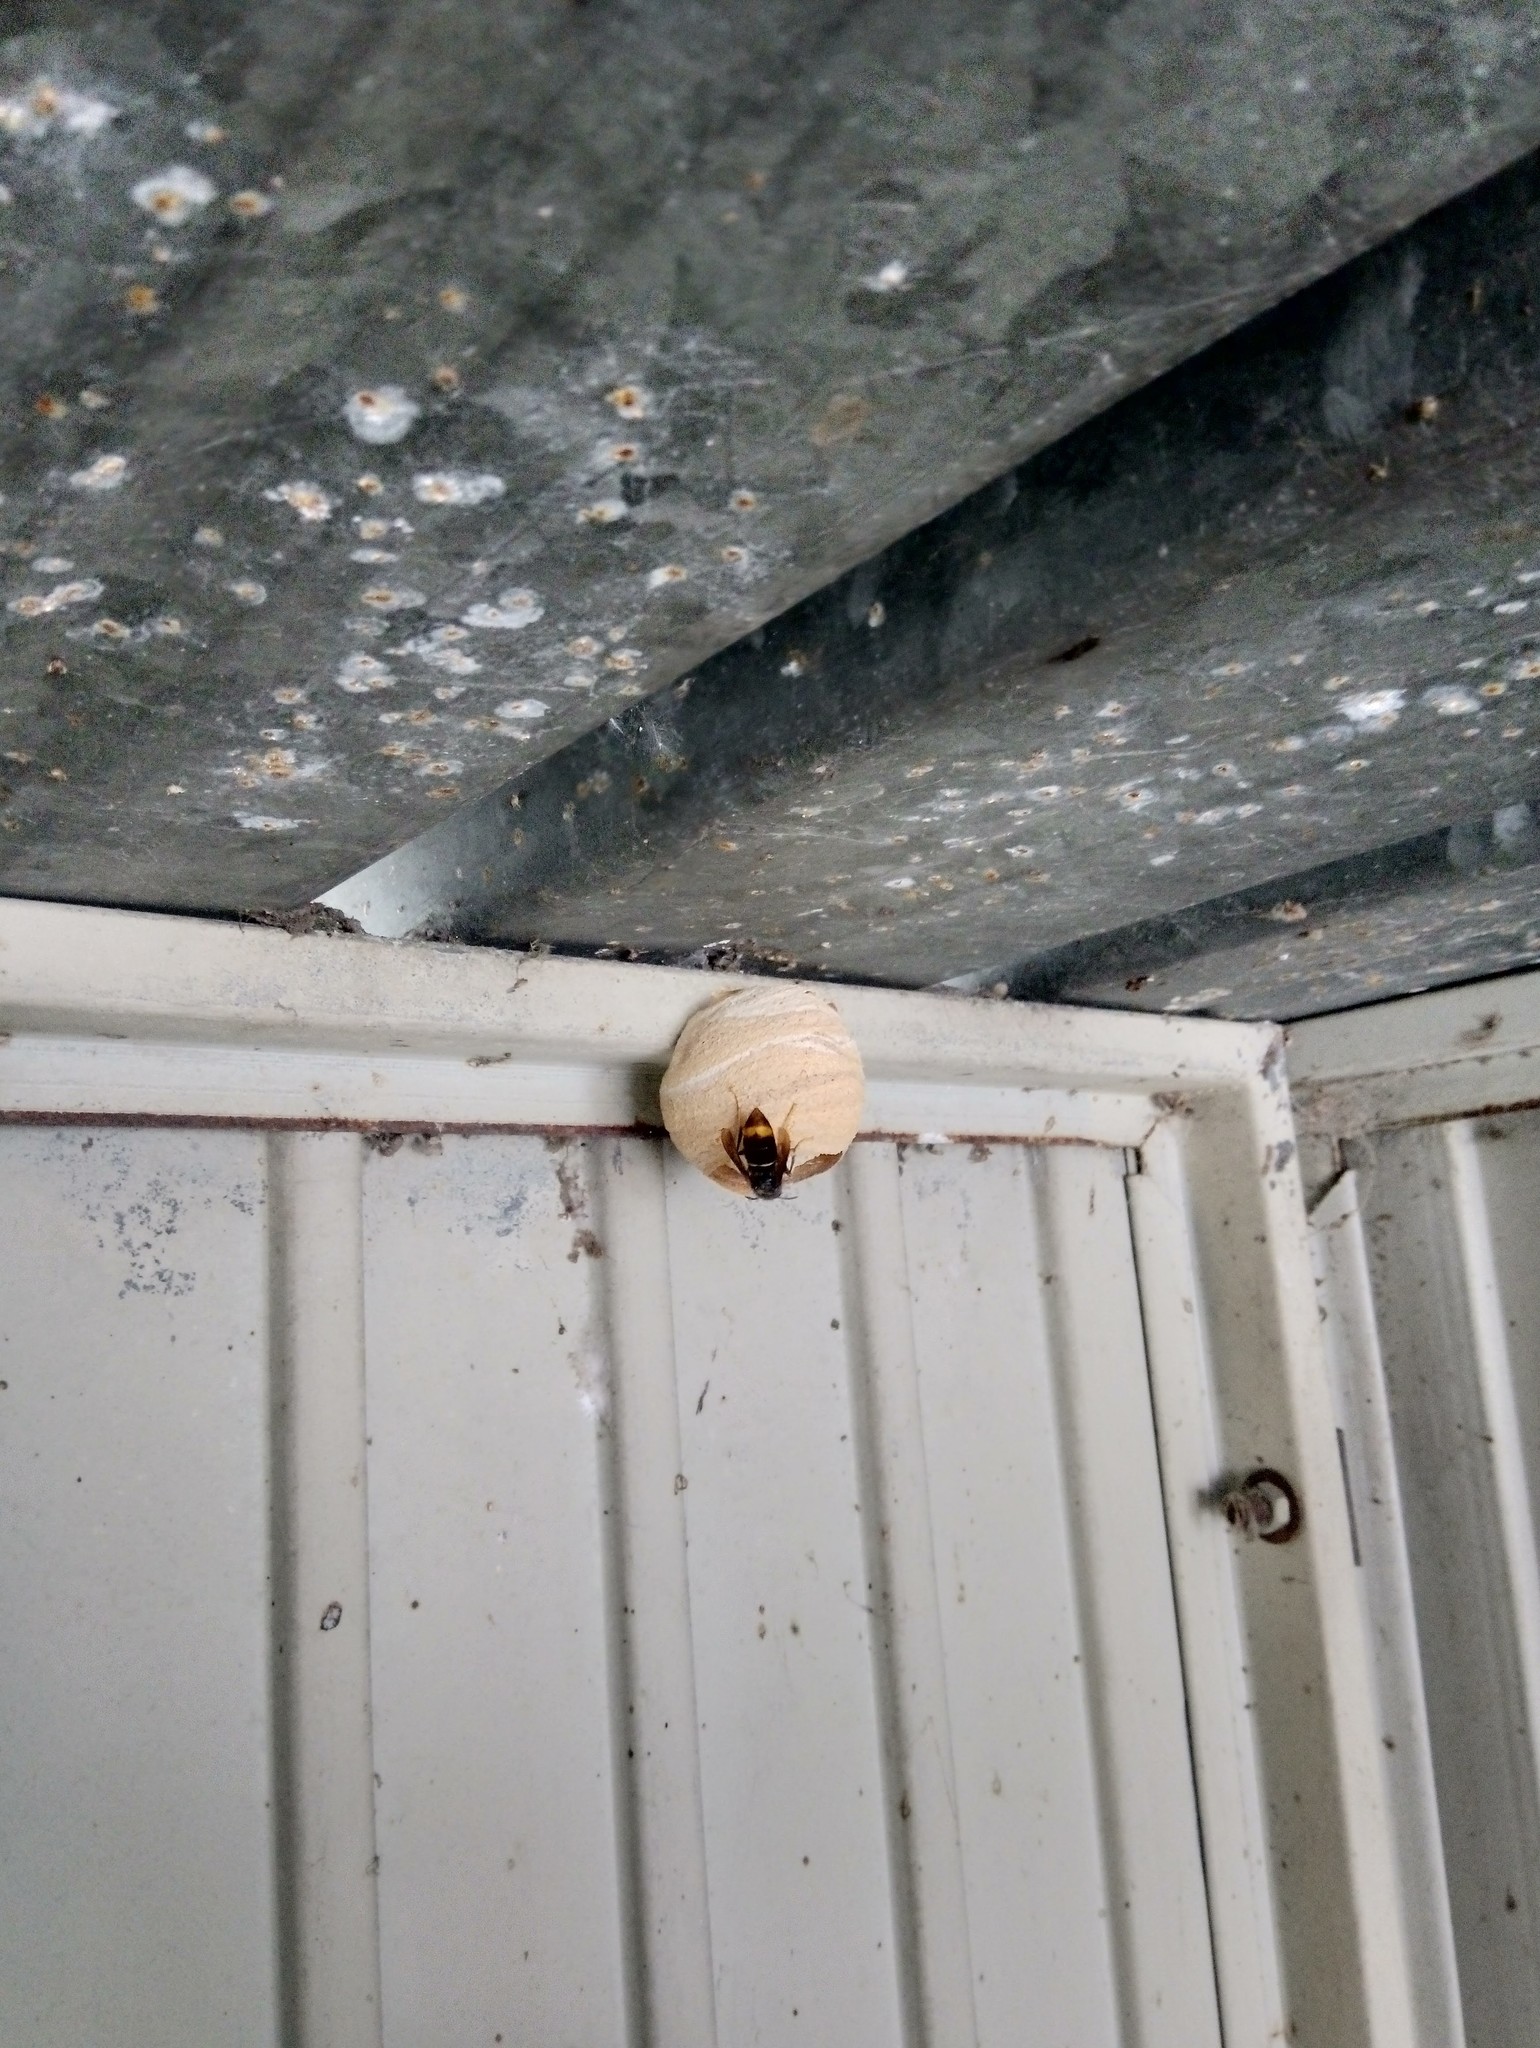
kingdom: Animalia
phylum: Arthropoda
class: Insecta
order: Hymenoptera
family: Vespidae
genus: Vespa
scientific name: Vespa velutina
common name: Asian hornet
